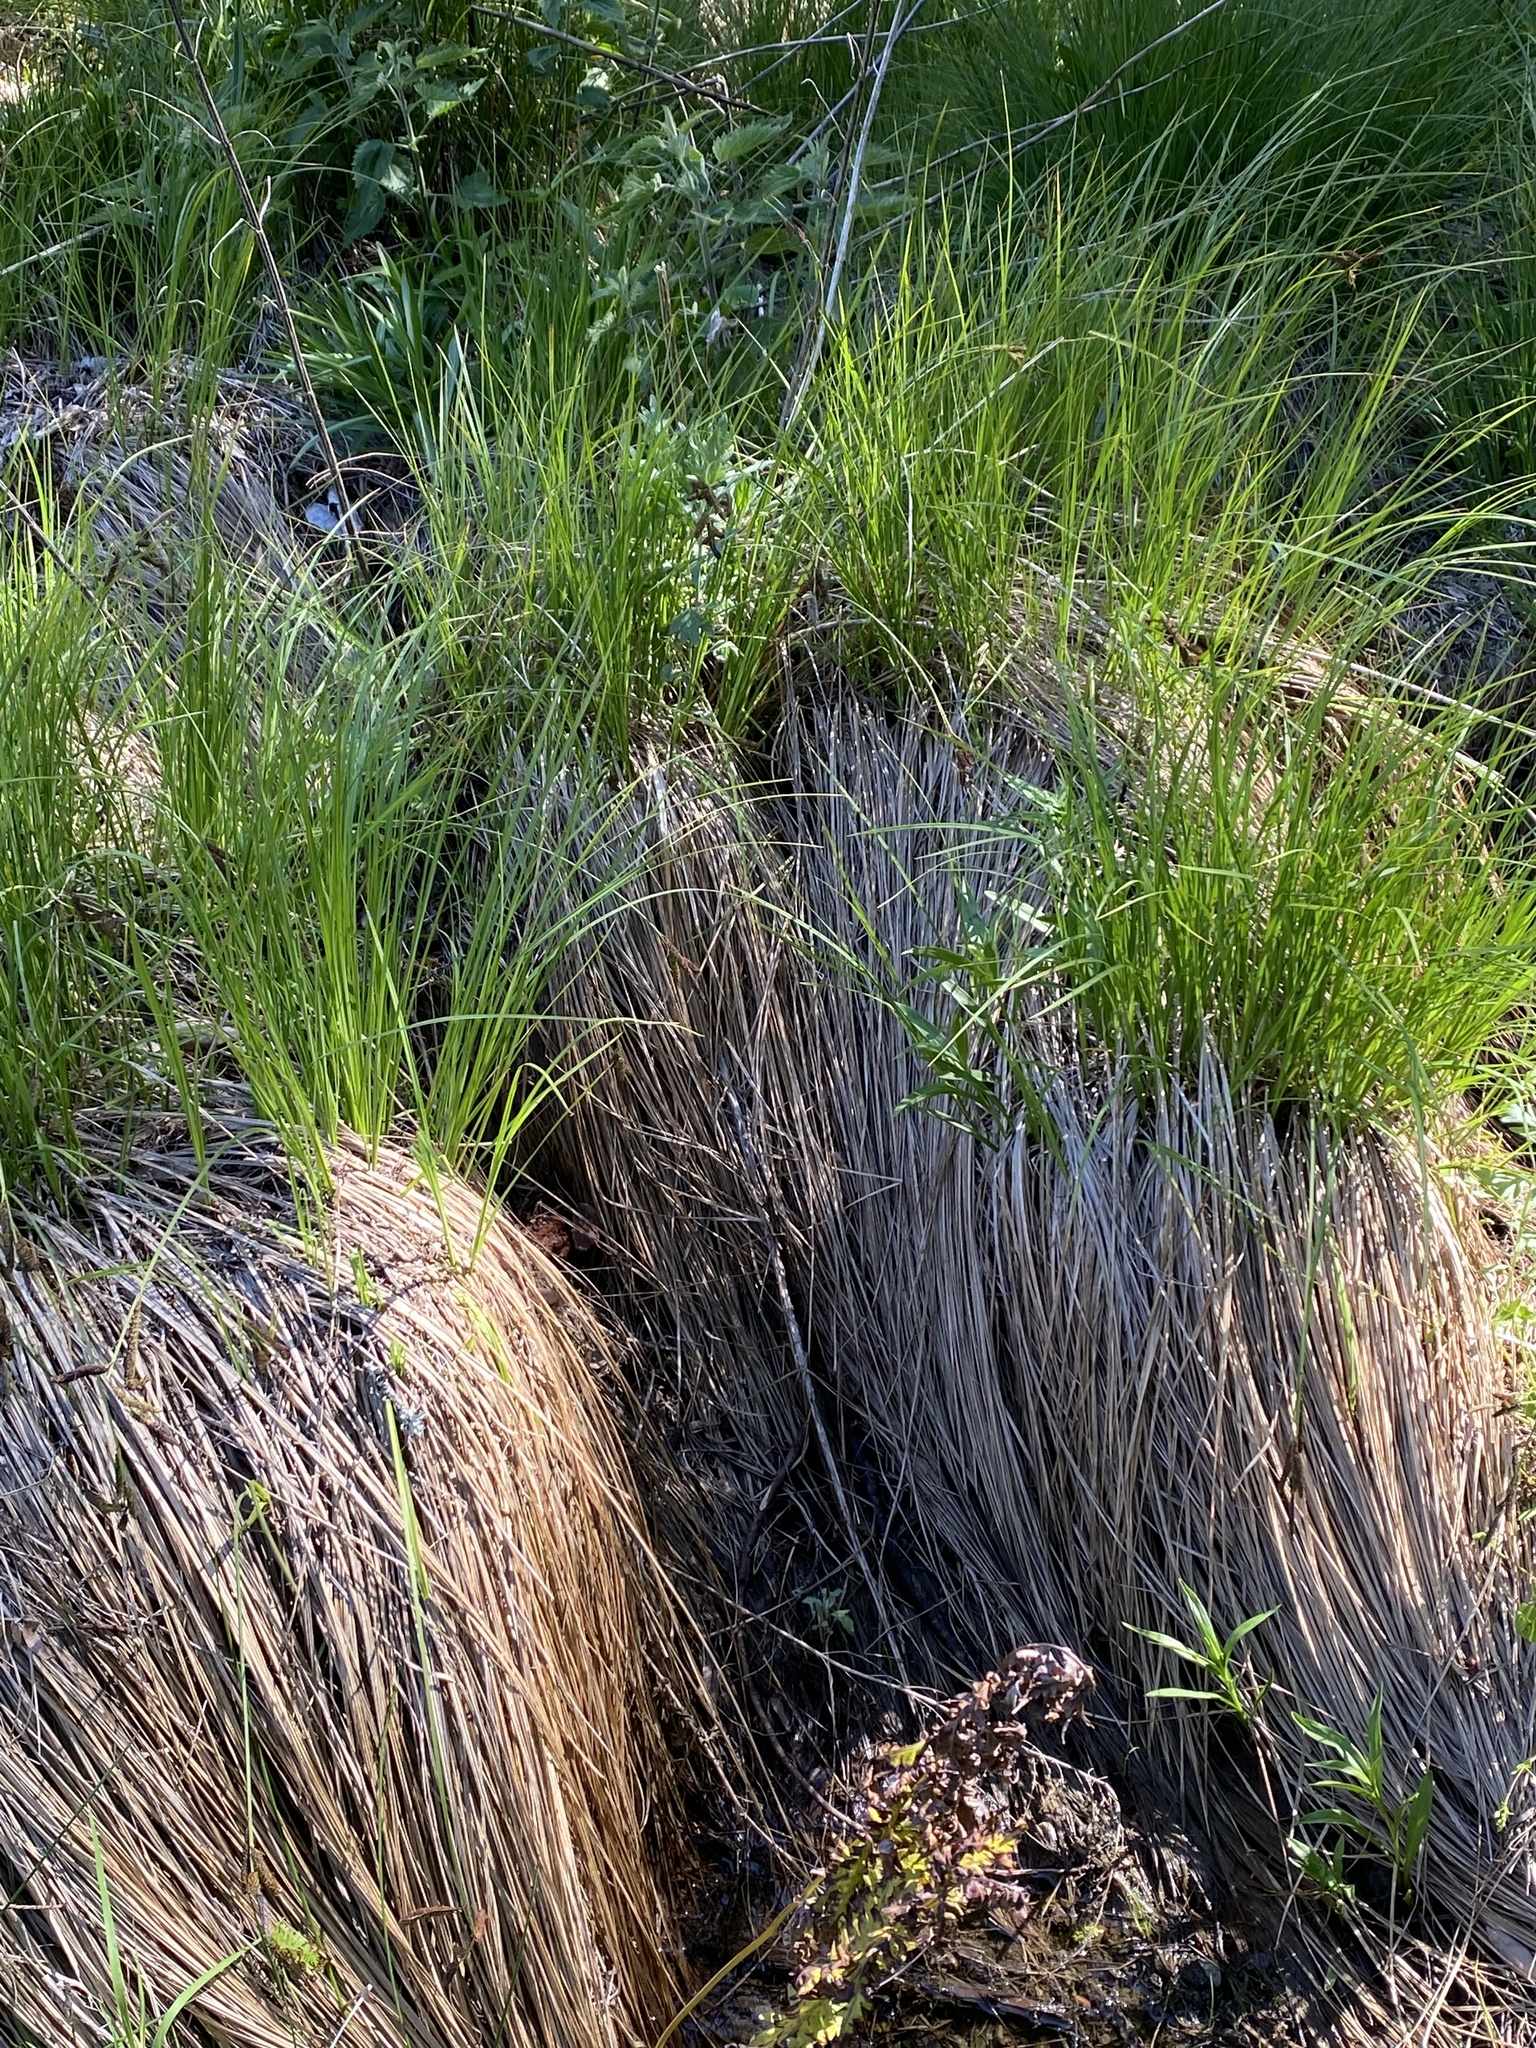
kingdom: Plantae
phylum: Tracheophyta
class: Liliopsida
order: Poales
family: Cyperaceae
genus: Carex
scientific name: Carex nudata
